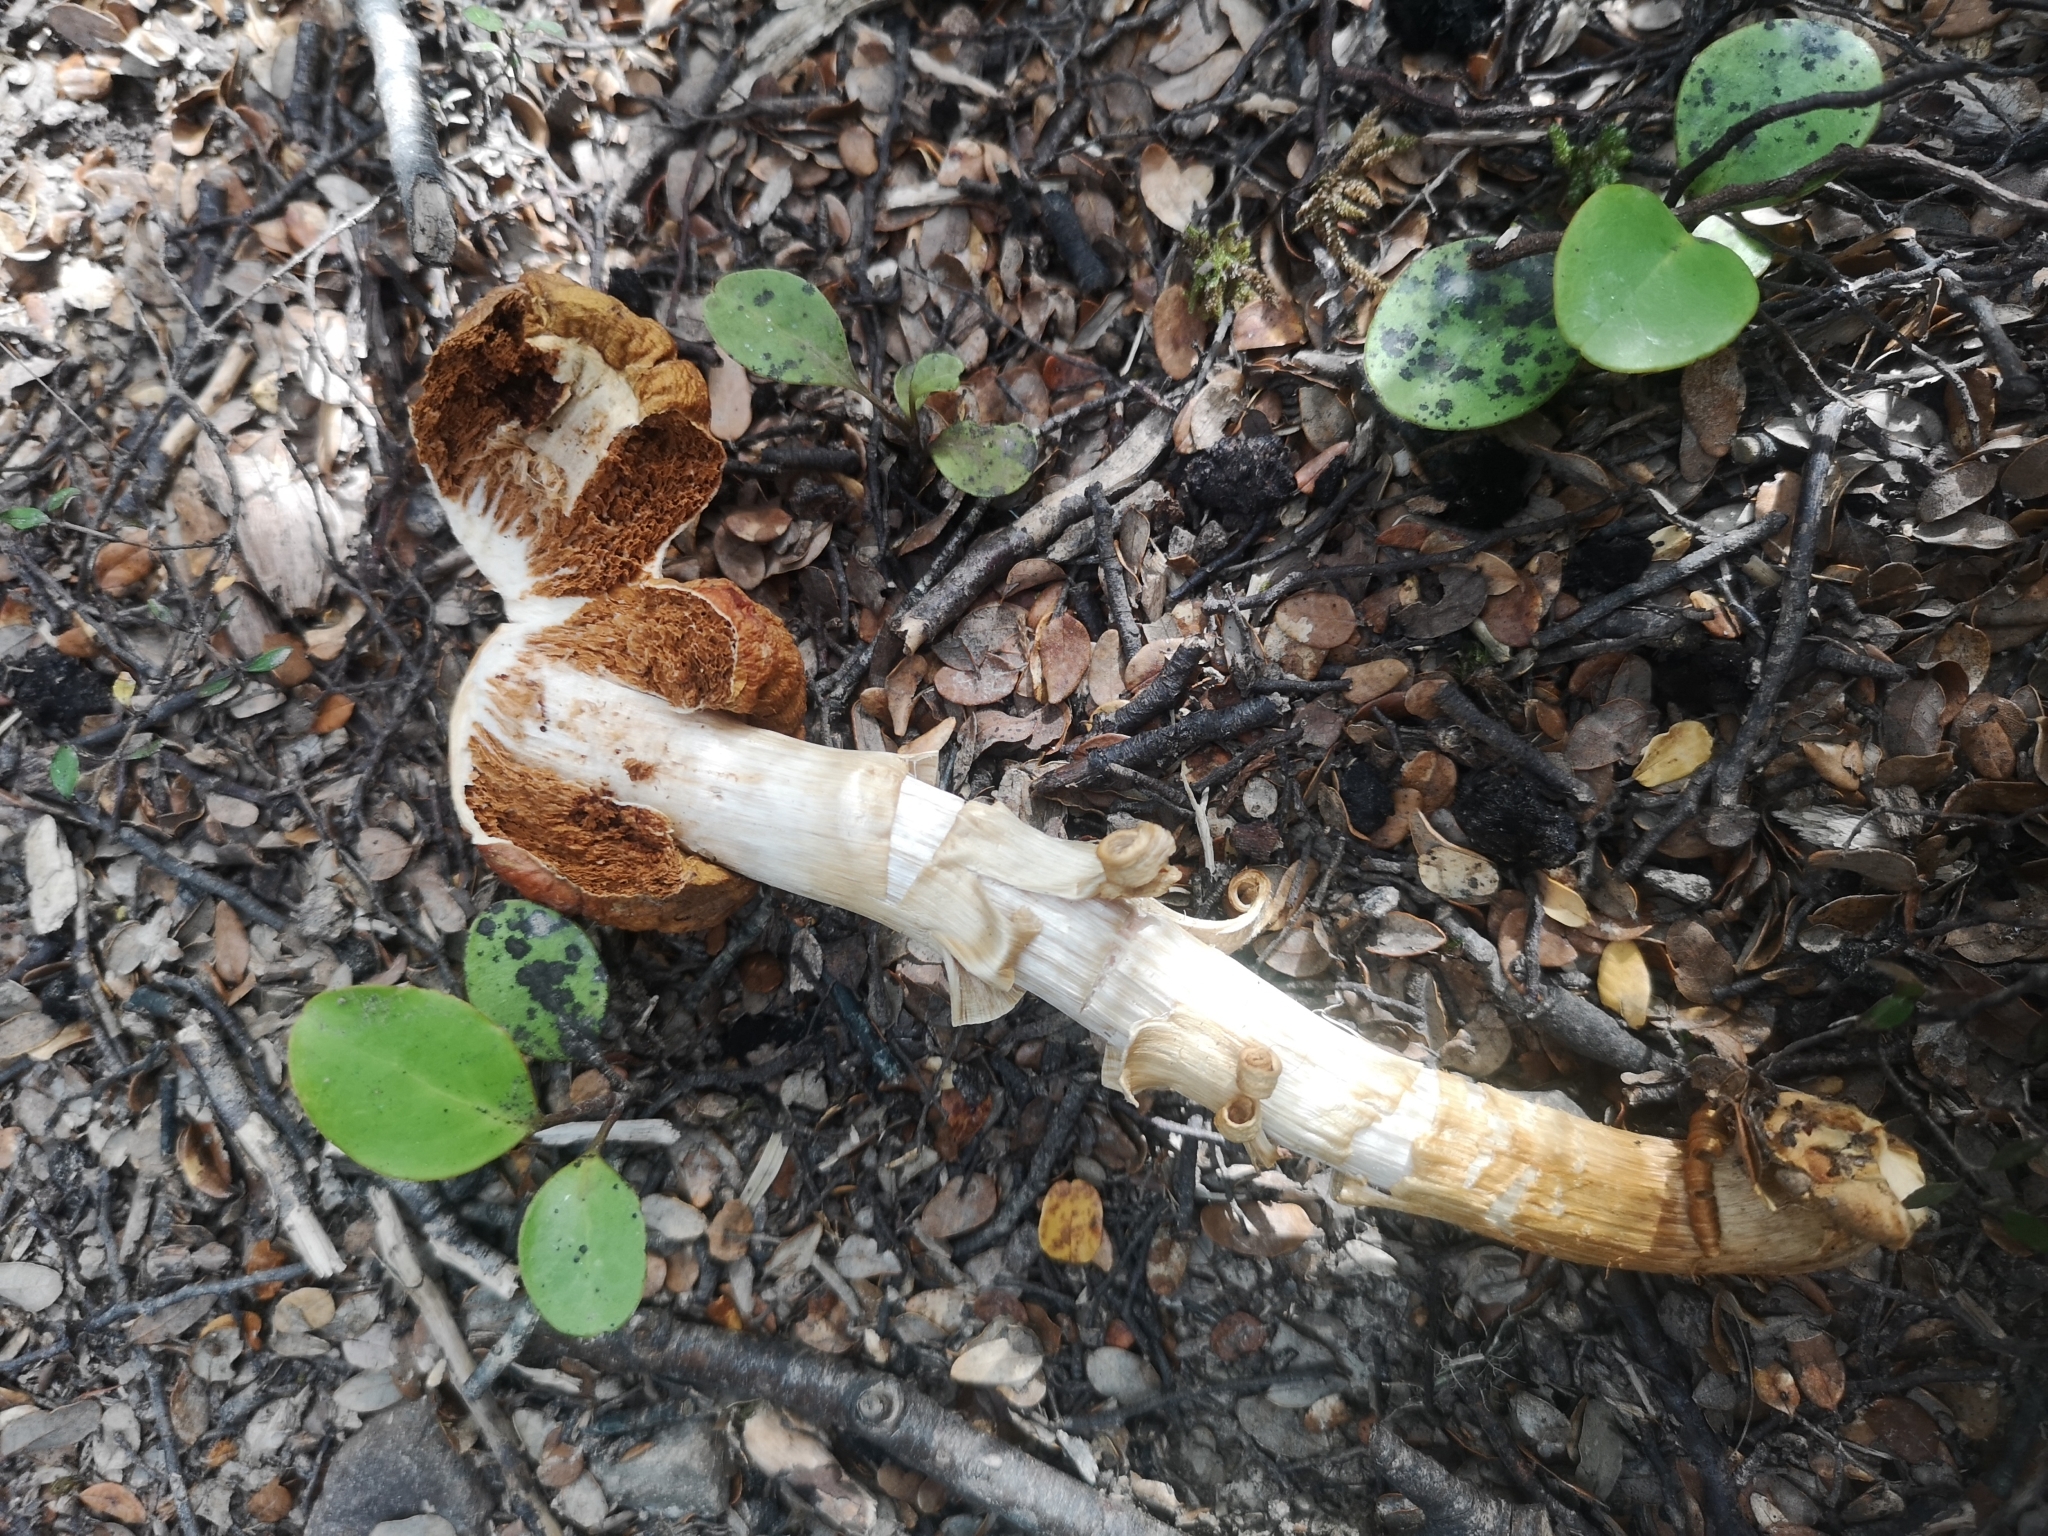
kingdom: Fungi
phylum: Basidiomycota
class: Agaricomycetes
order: Agaricales
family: Cortinariaceae
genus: Cortinarius
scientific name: Cortinarius epiphaeus
